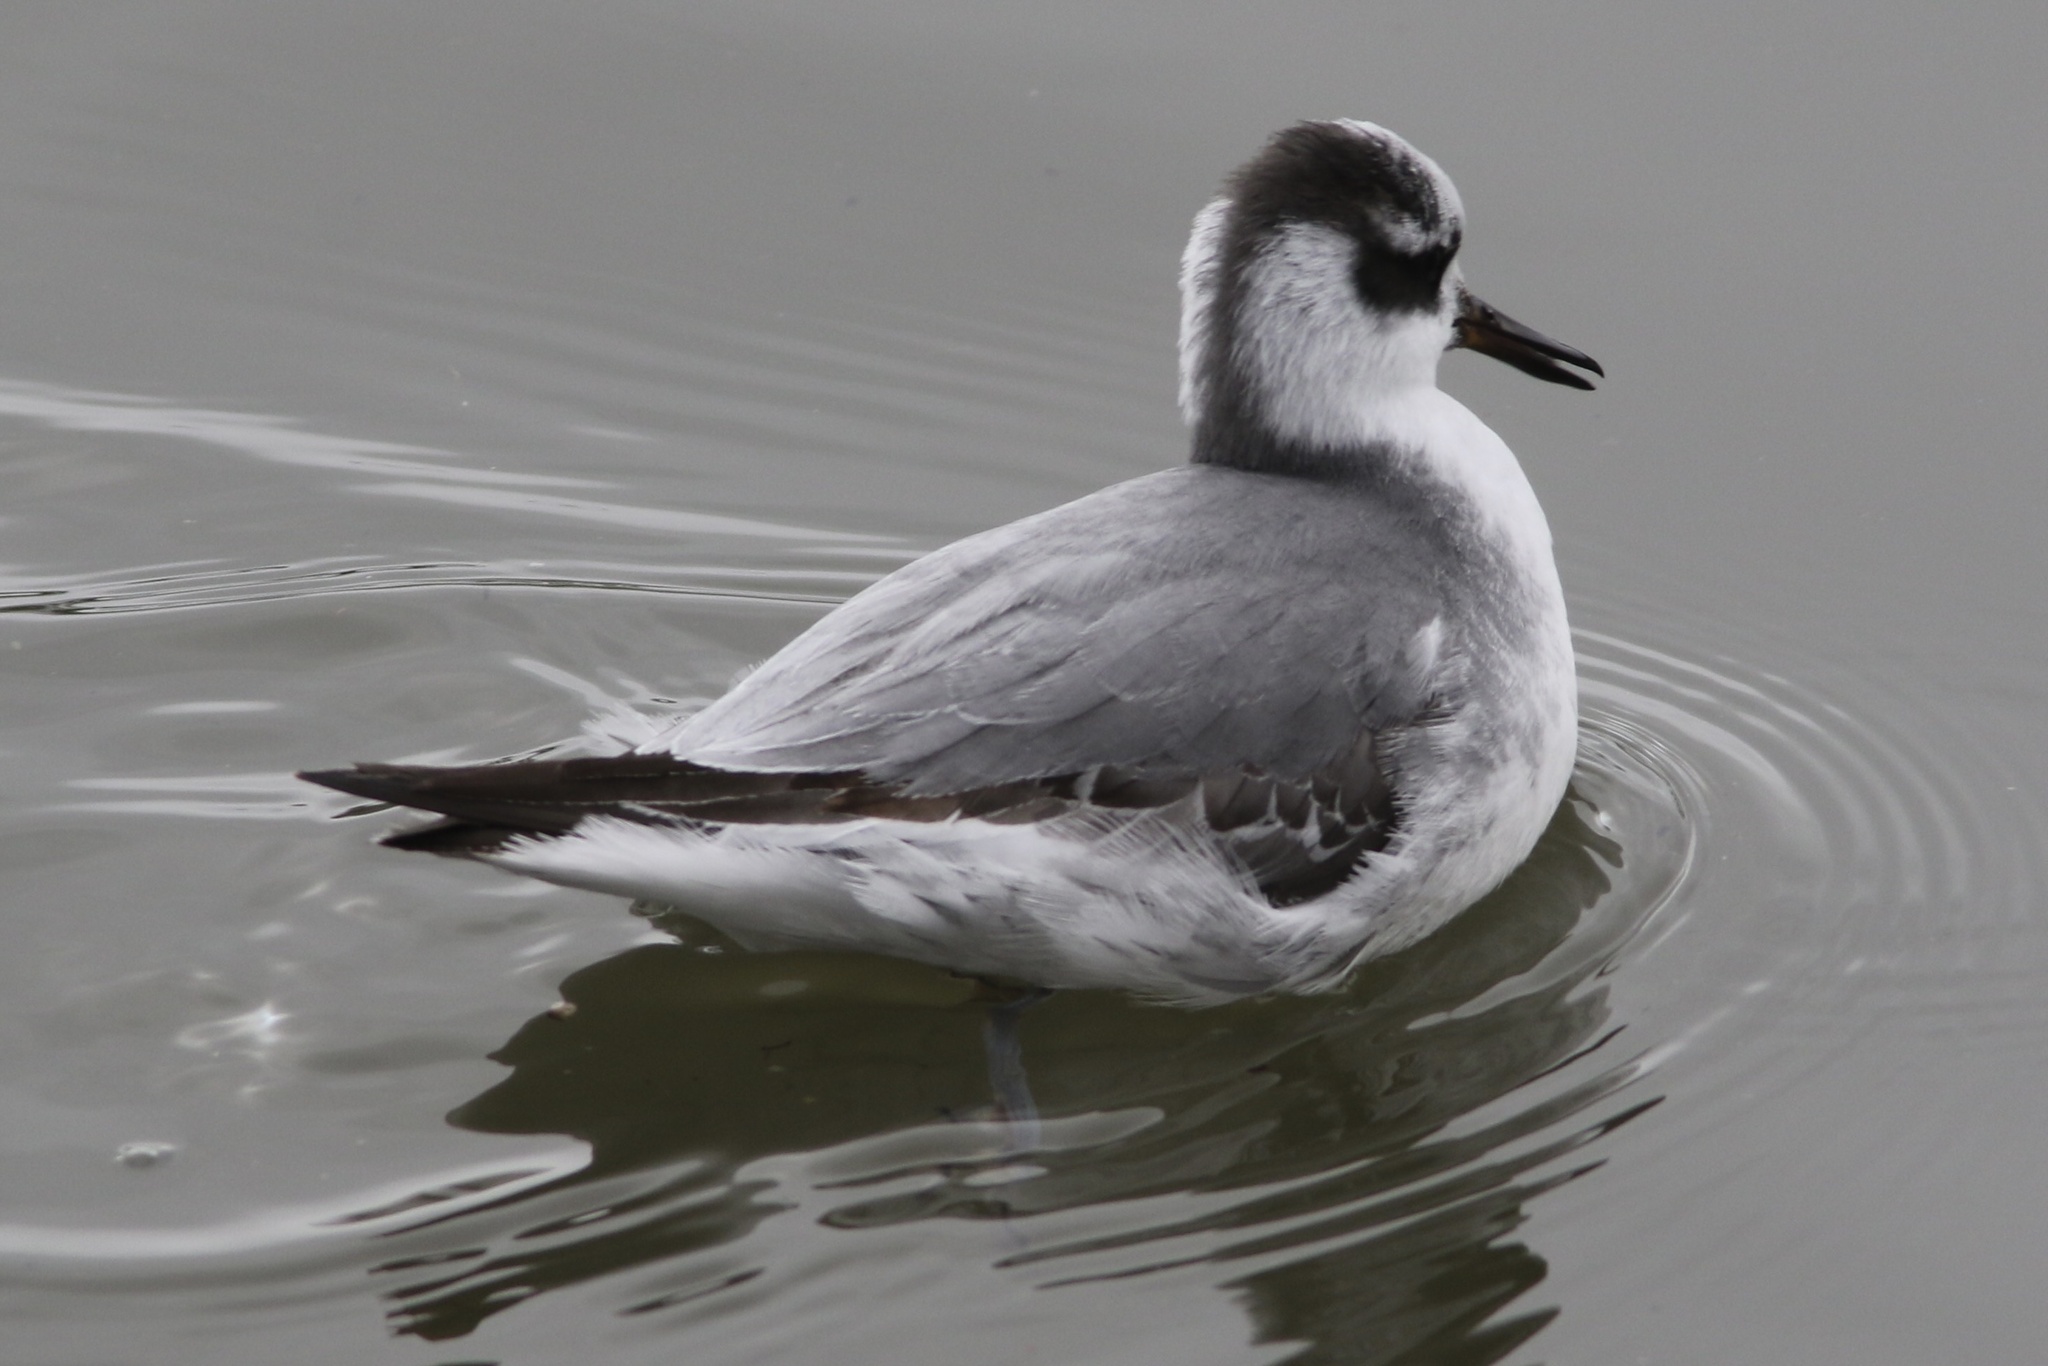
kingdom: Animalia
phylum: Chordata
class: Aves
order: Charadriiformes
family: Scolopacidae
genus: Phalaropus
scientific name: Phalaropus fulicarius
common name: Red phalarope
